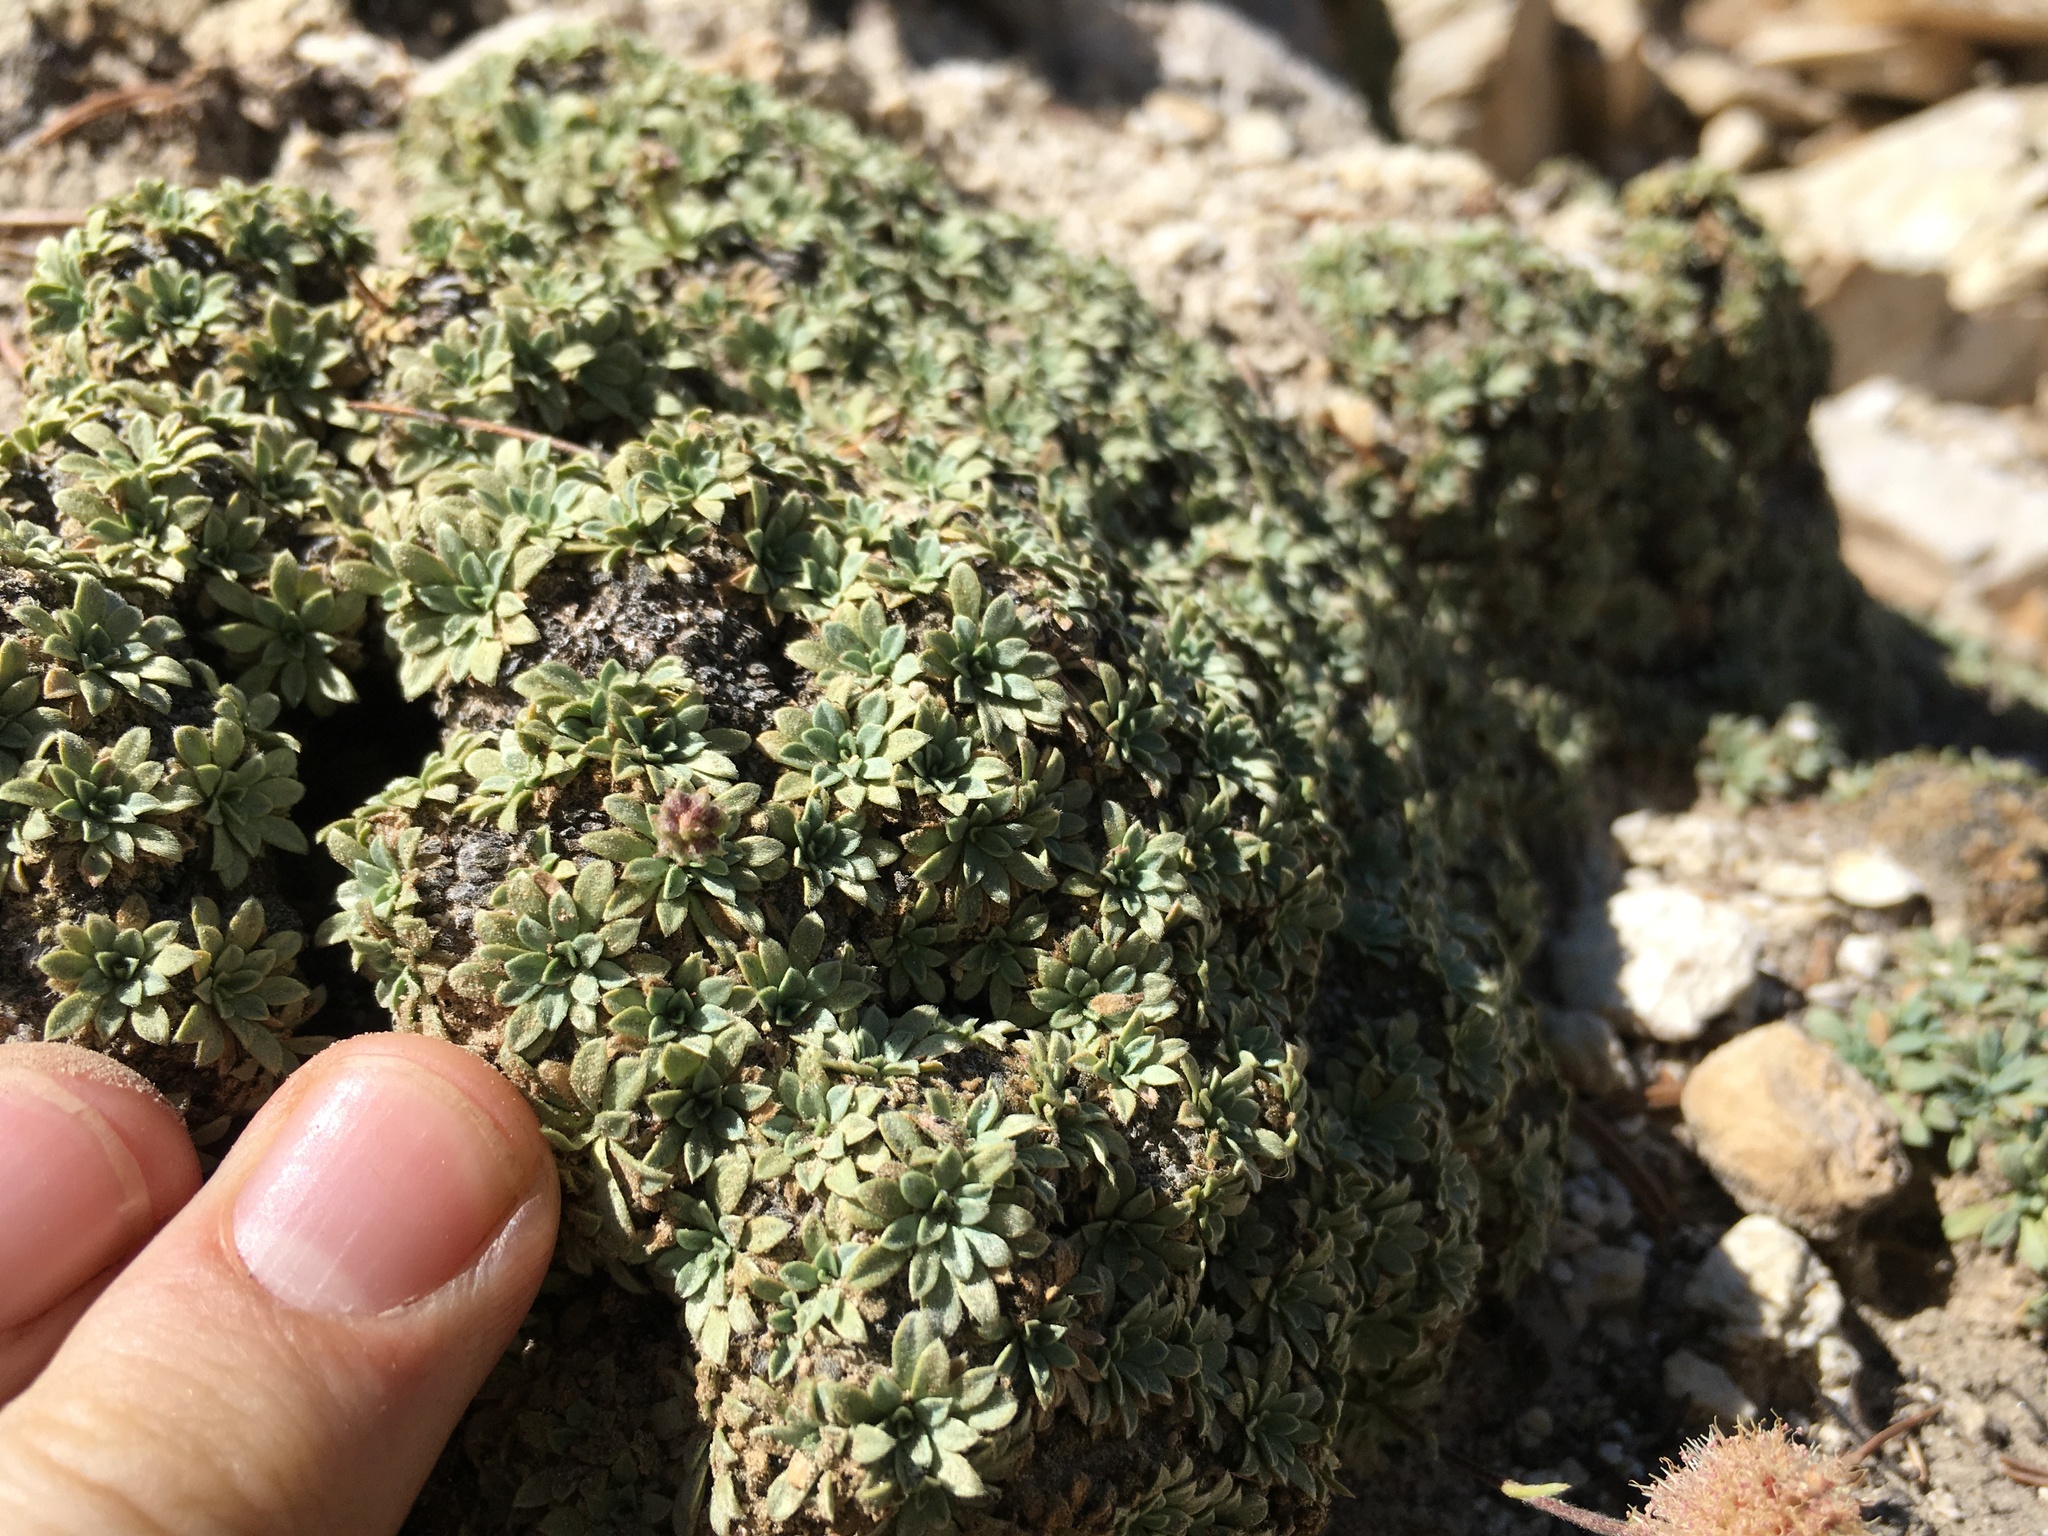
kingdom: Plantae
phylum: Tracheophyta
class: Magnoliopsida
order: Rosales
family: Rosaceae
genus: Petrophytum
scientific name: Petrophytum caespitosum
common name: Mat rockspirea
